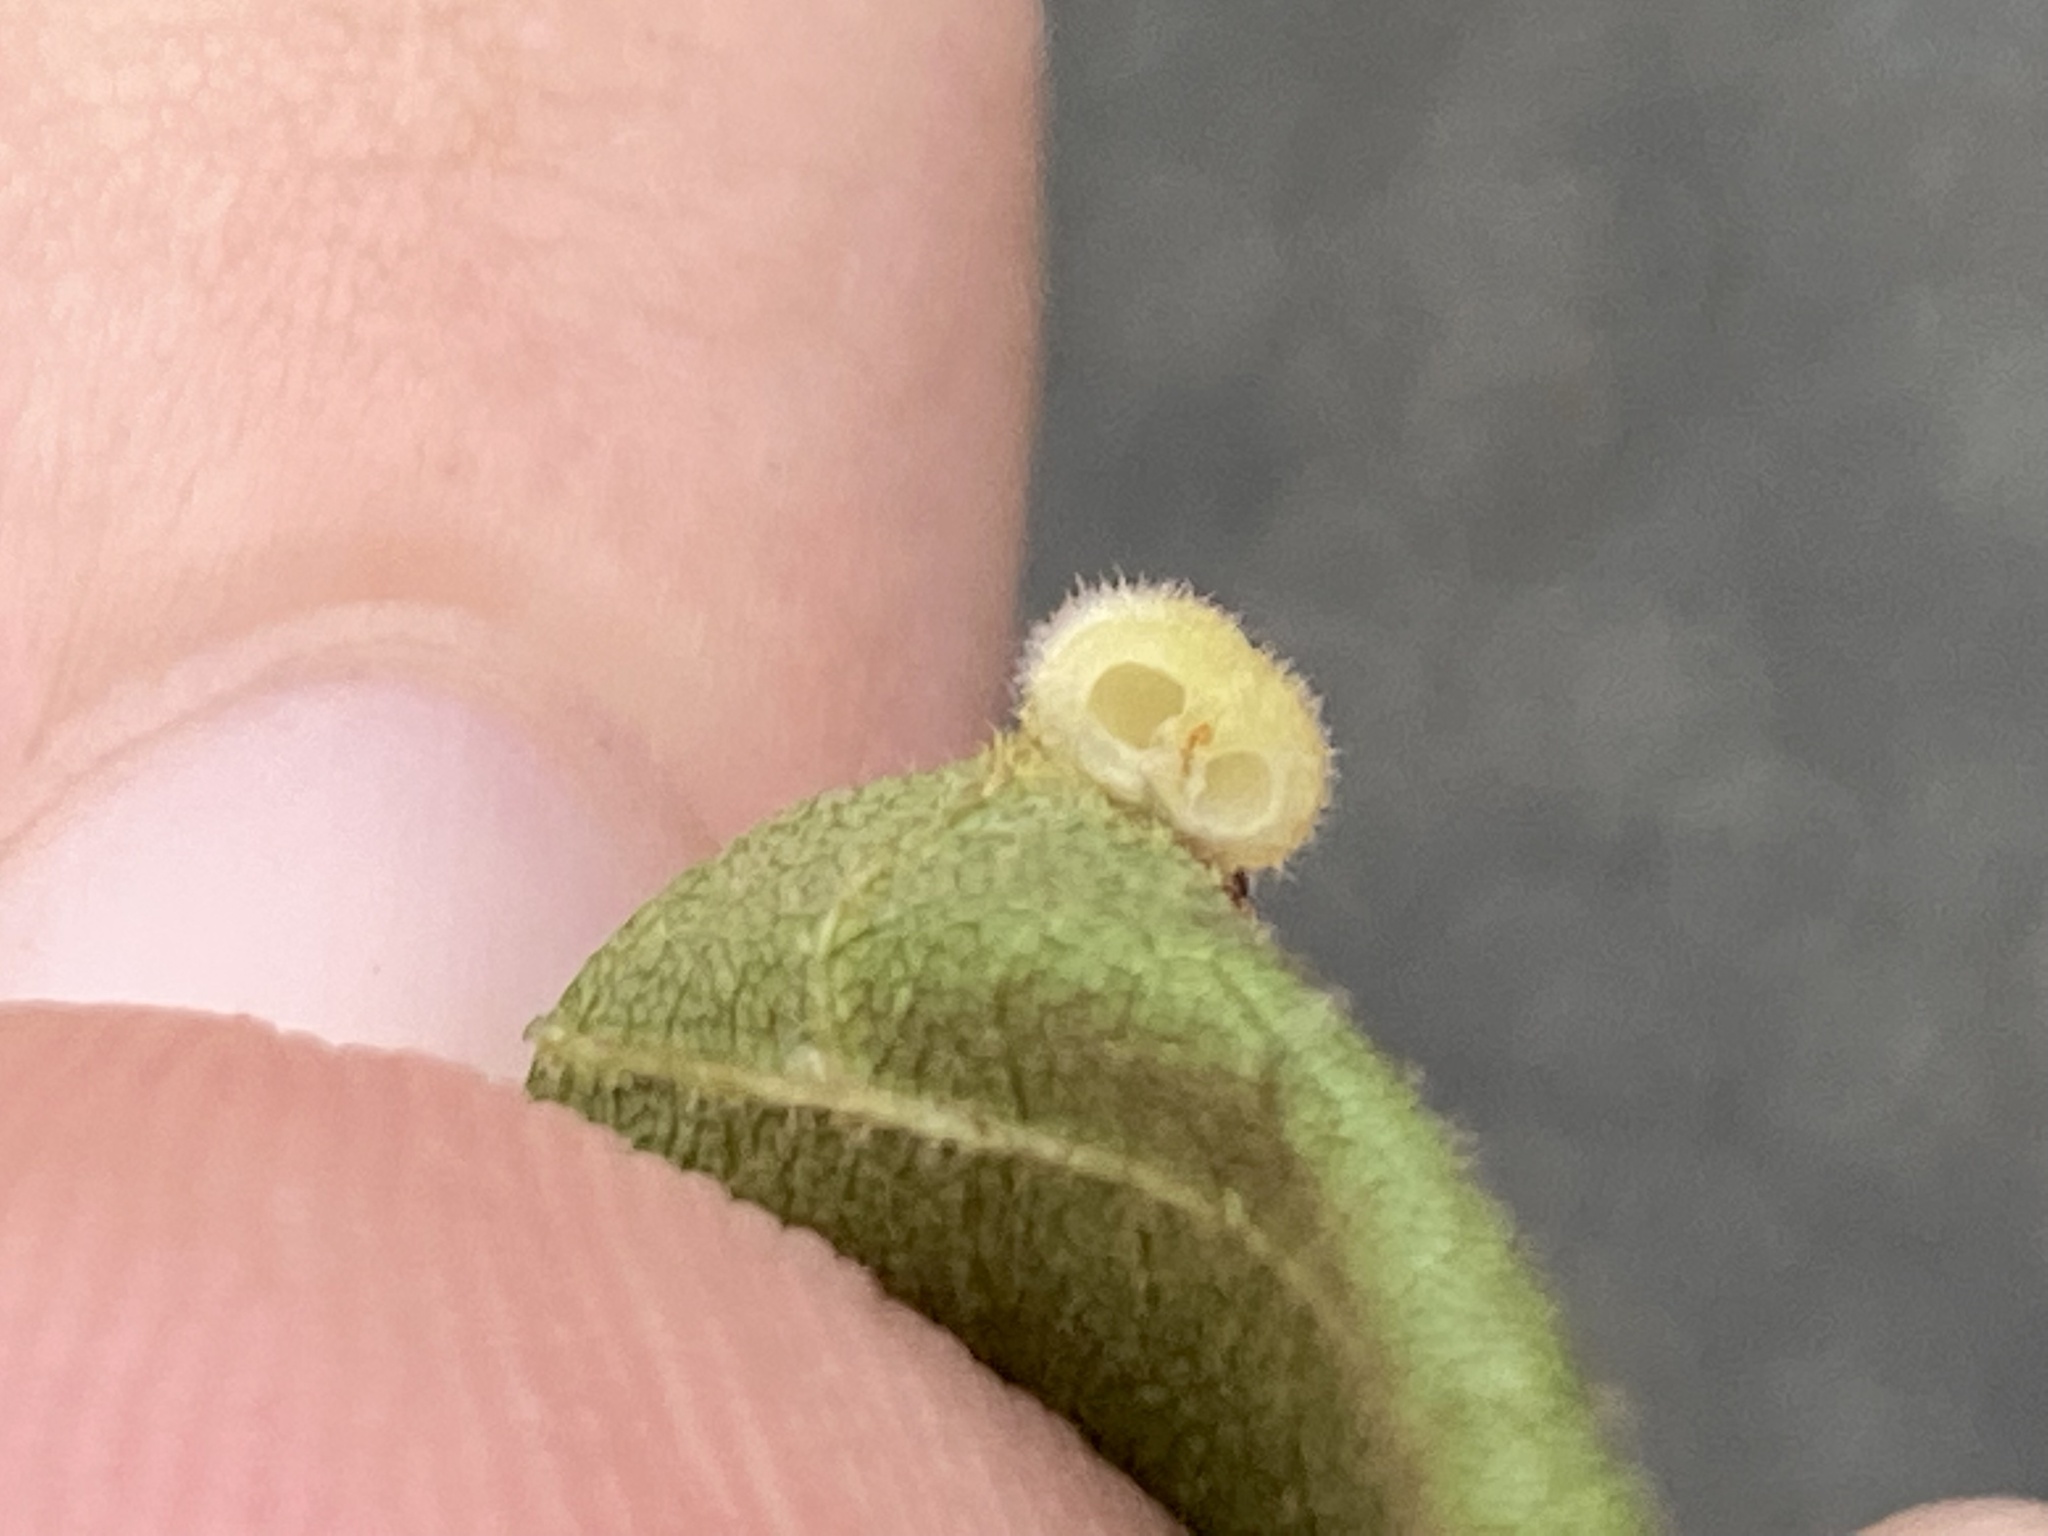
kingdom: Animalia
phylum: Arthropoda
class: Insecta
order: Diptera
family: Cecidomyiidae
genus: Caryomyia
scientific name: Caryomyia thompsoni
